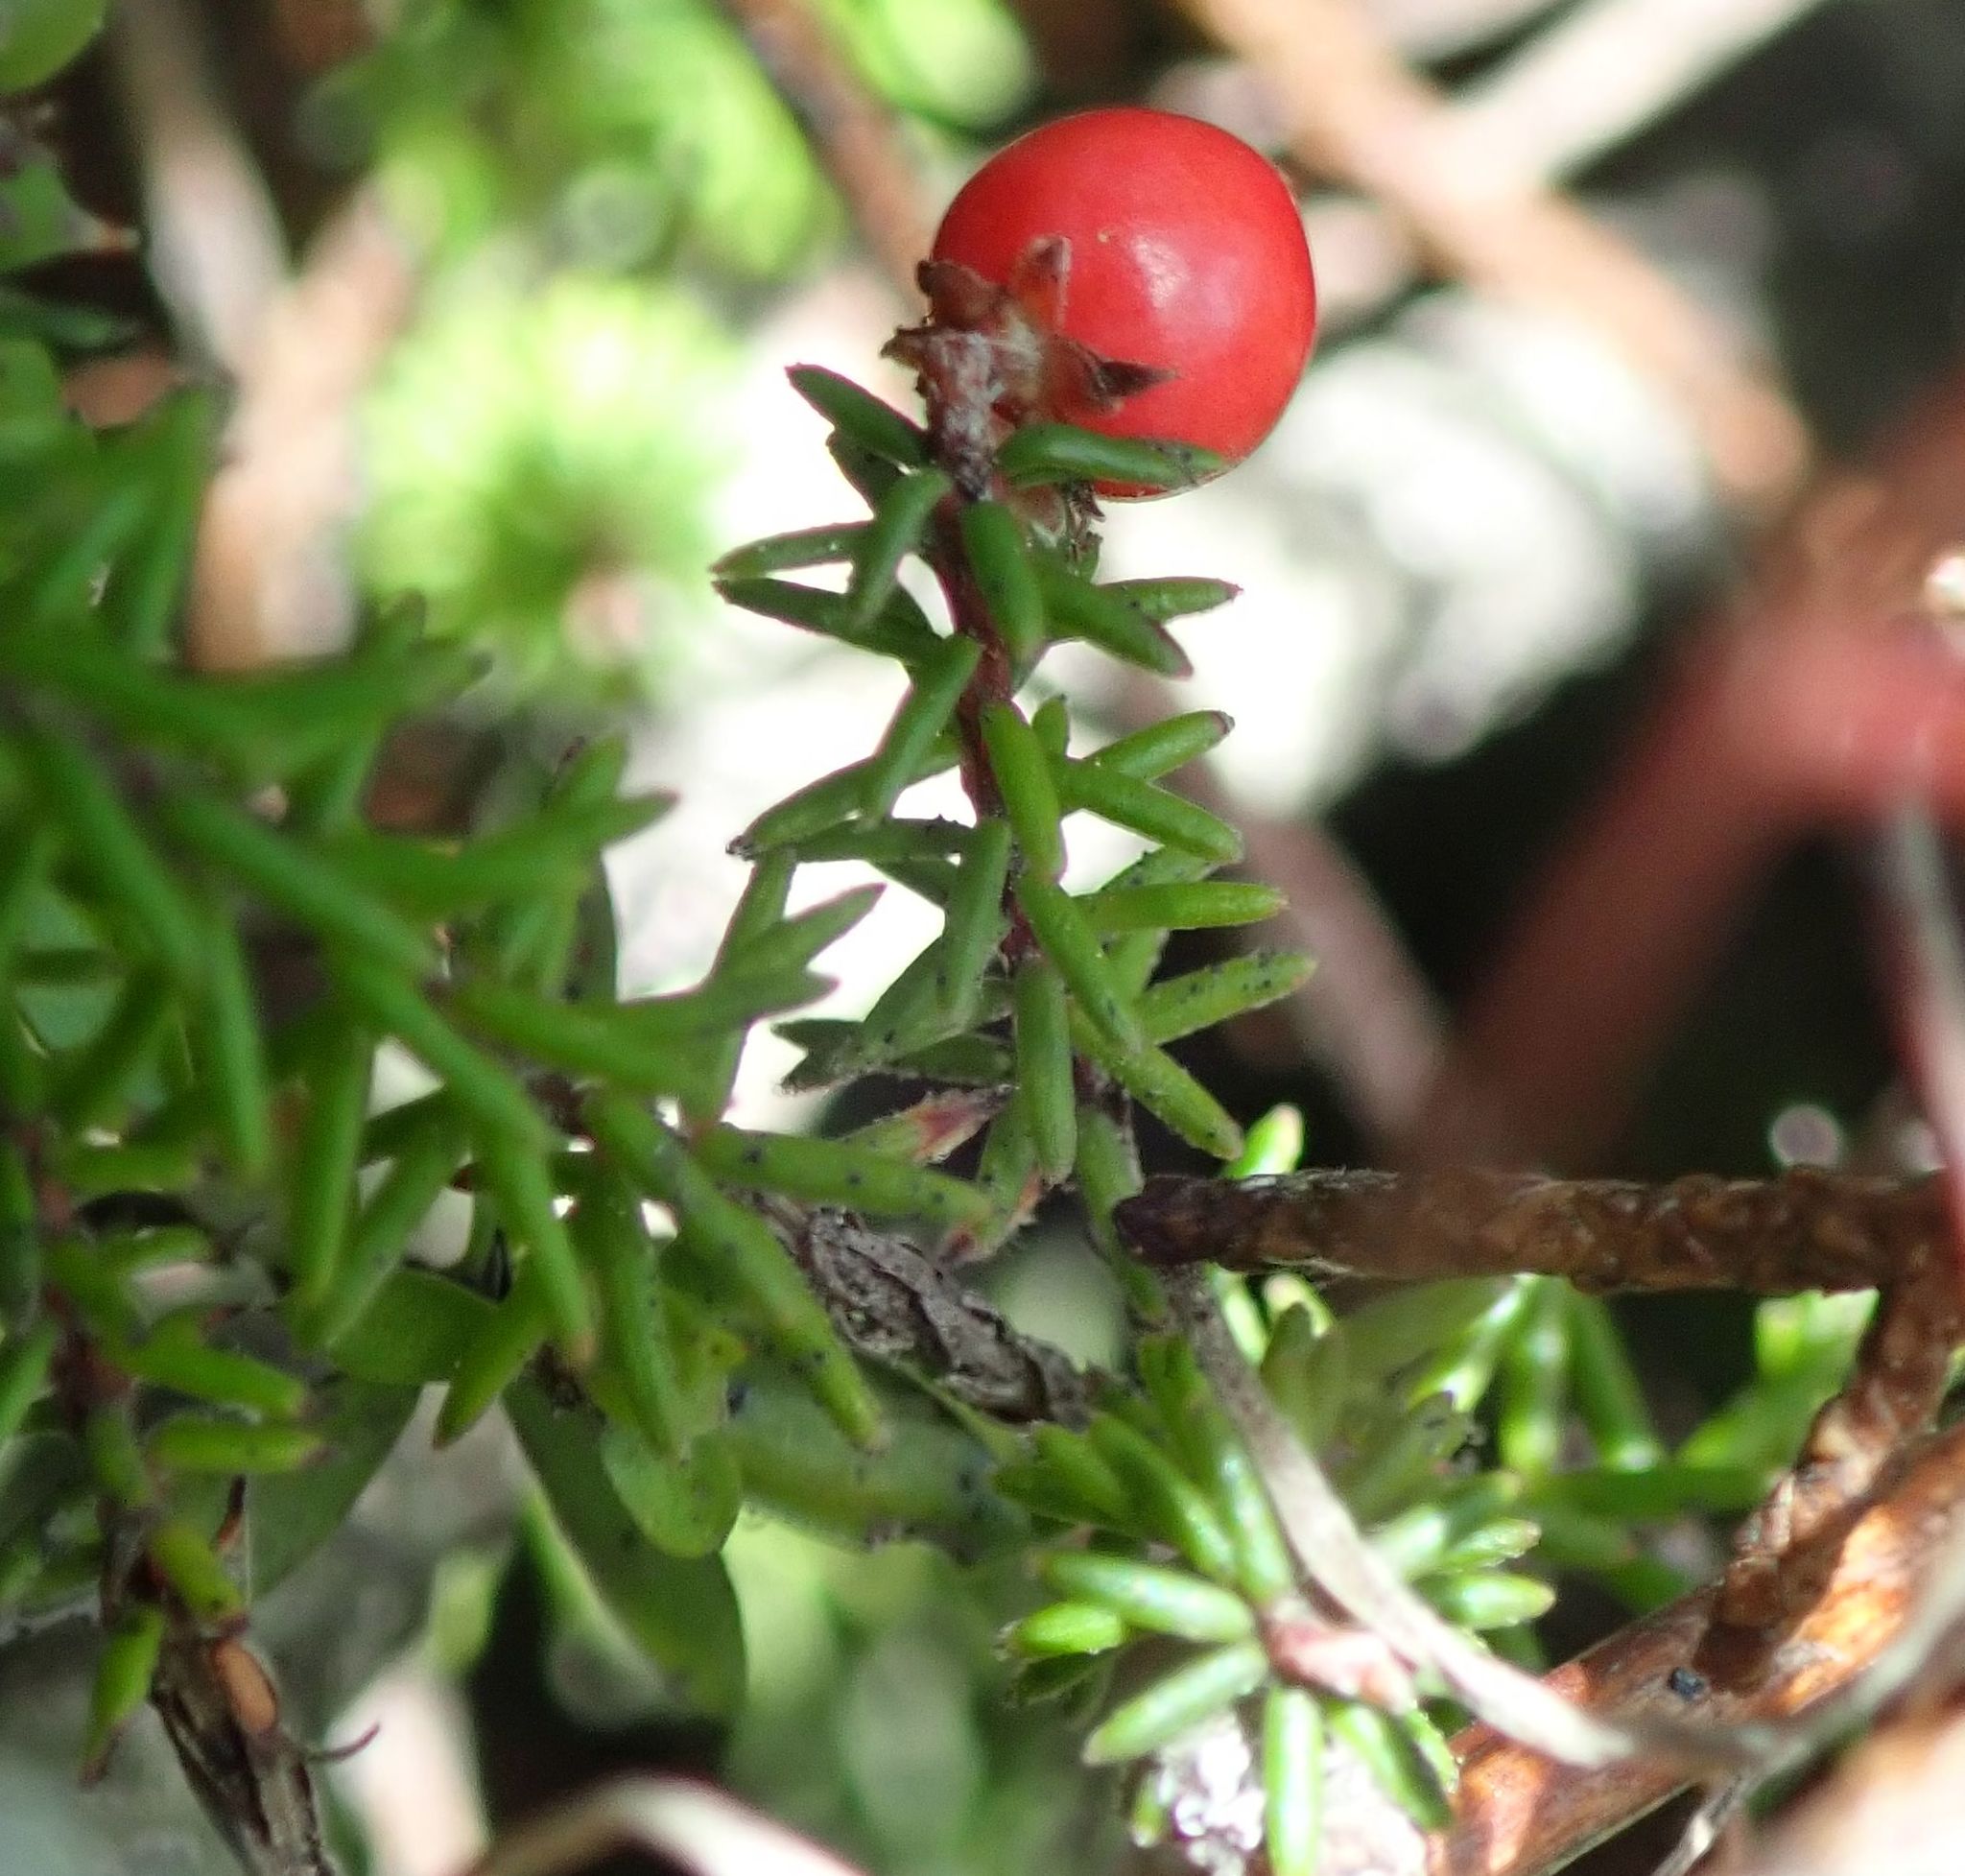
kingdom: Plantae
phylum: Tracheophyta
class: Magnoliopsida
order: Ericales
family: Ericaceae
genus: Androstoma
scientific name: Androstoma empetrifolia
